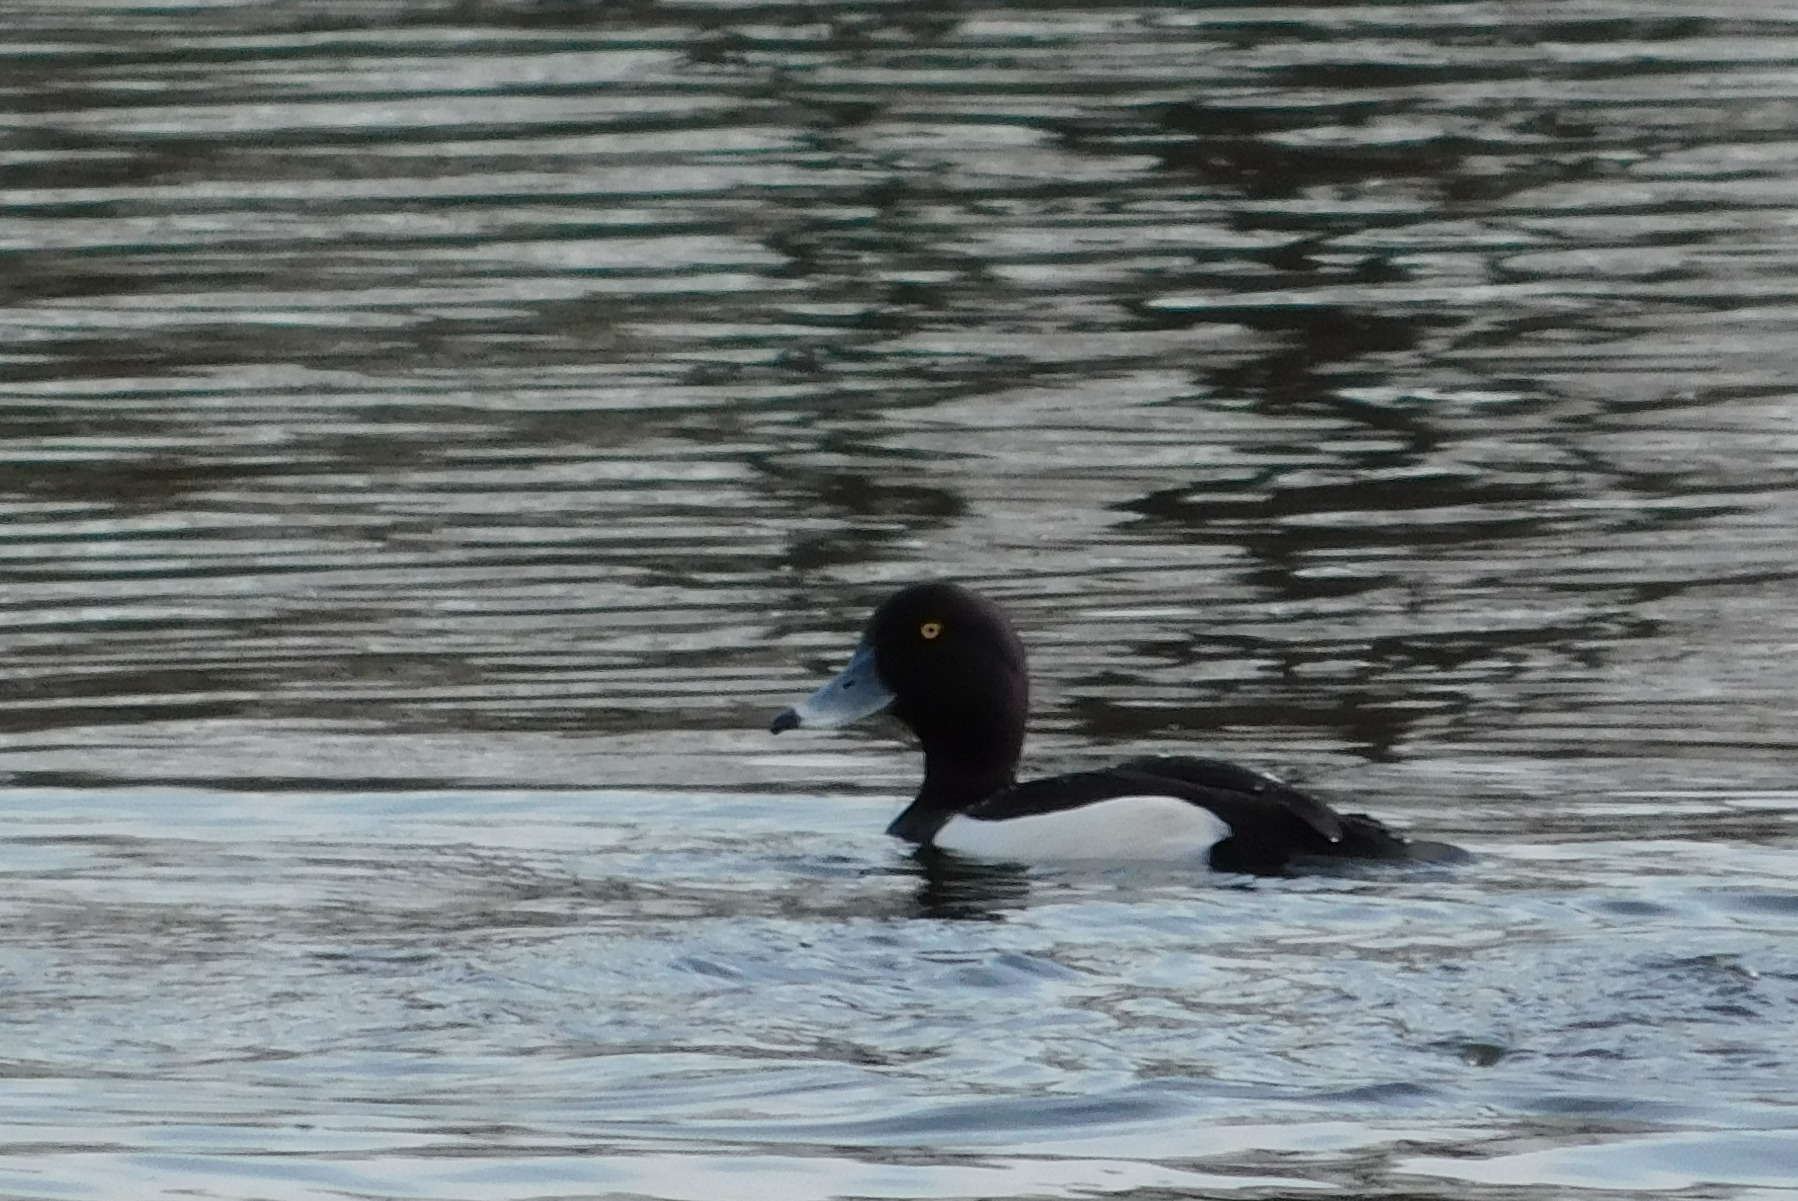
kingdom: Animalia
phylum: Chordata
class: Aves
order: Anseriformes
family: Anatidae
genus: Aythya
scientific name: Aythya fuligula
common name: Tufted duck
